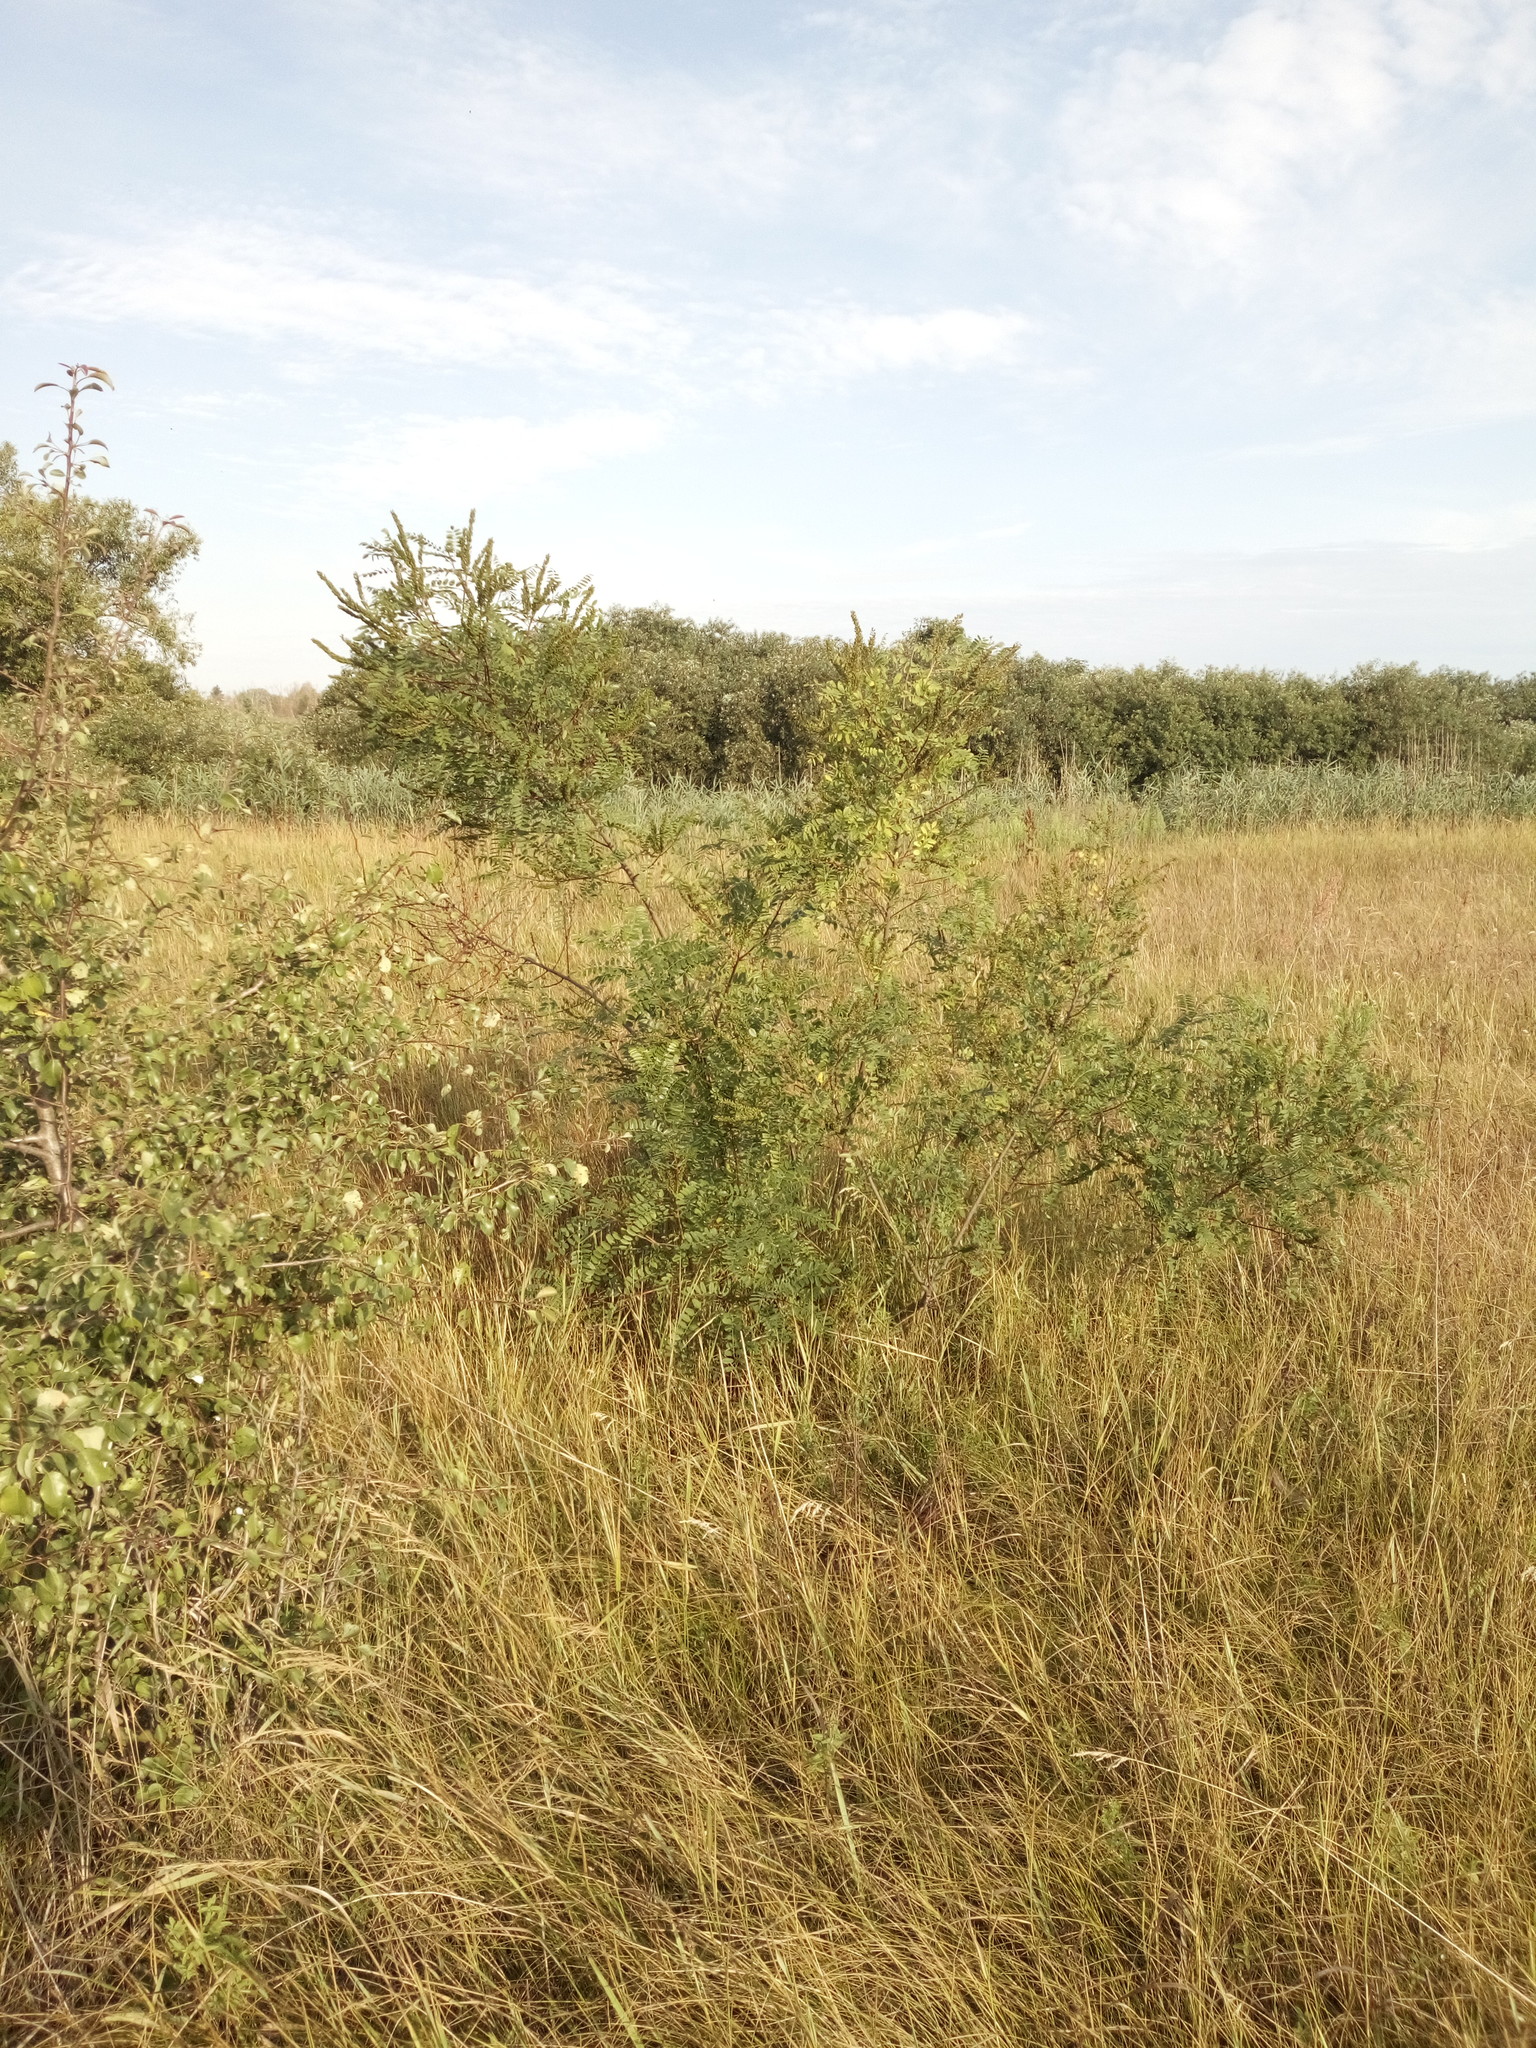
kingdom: Plantae
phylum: Tracheophyta
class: Magnoliopsida
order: Fabales
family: Fabaceae
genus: Amorpha
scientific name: Amorpha fruticosa
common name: False indigo
